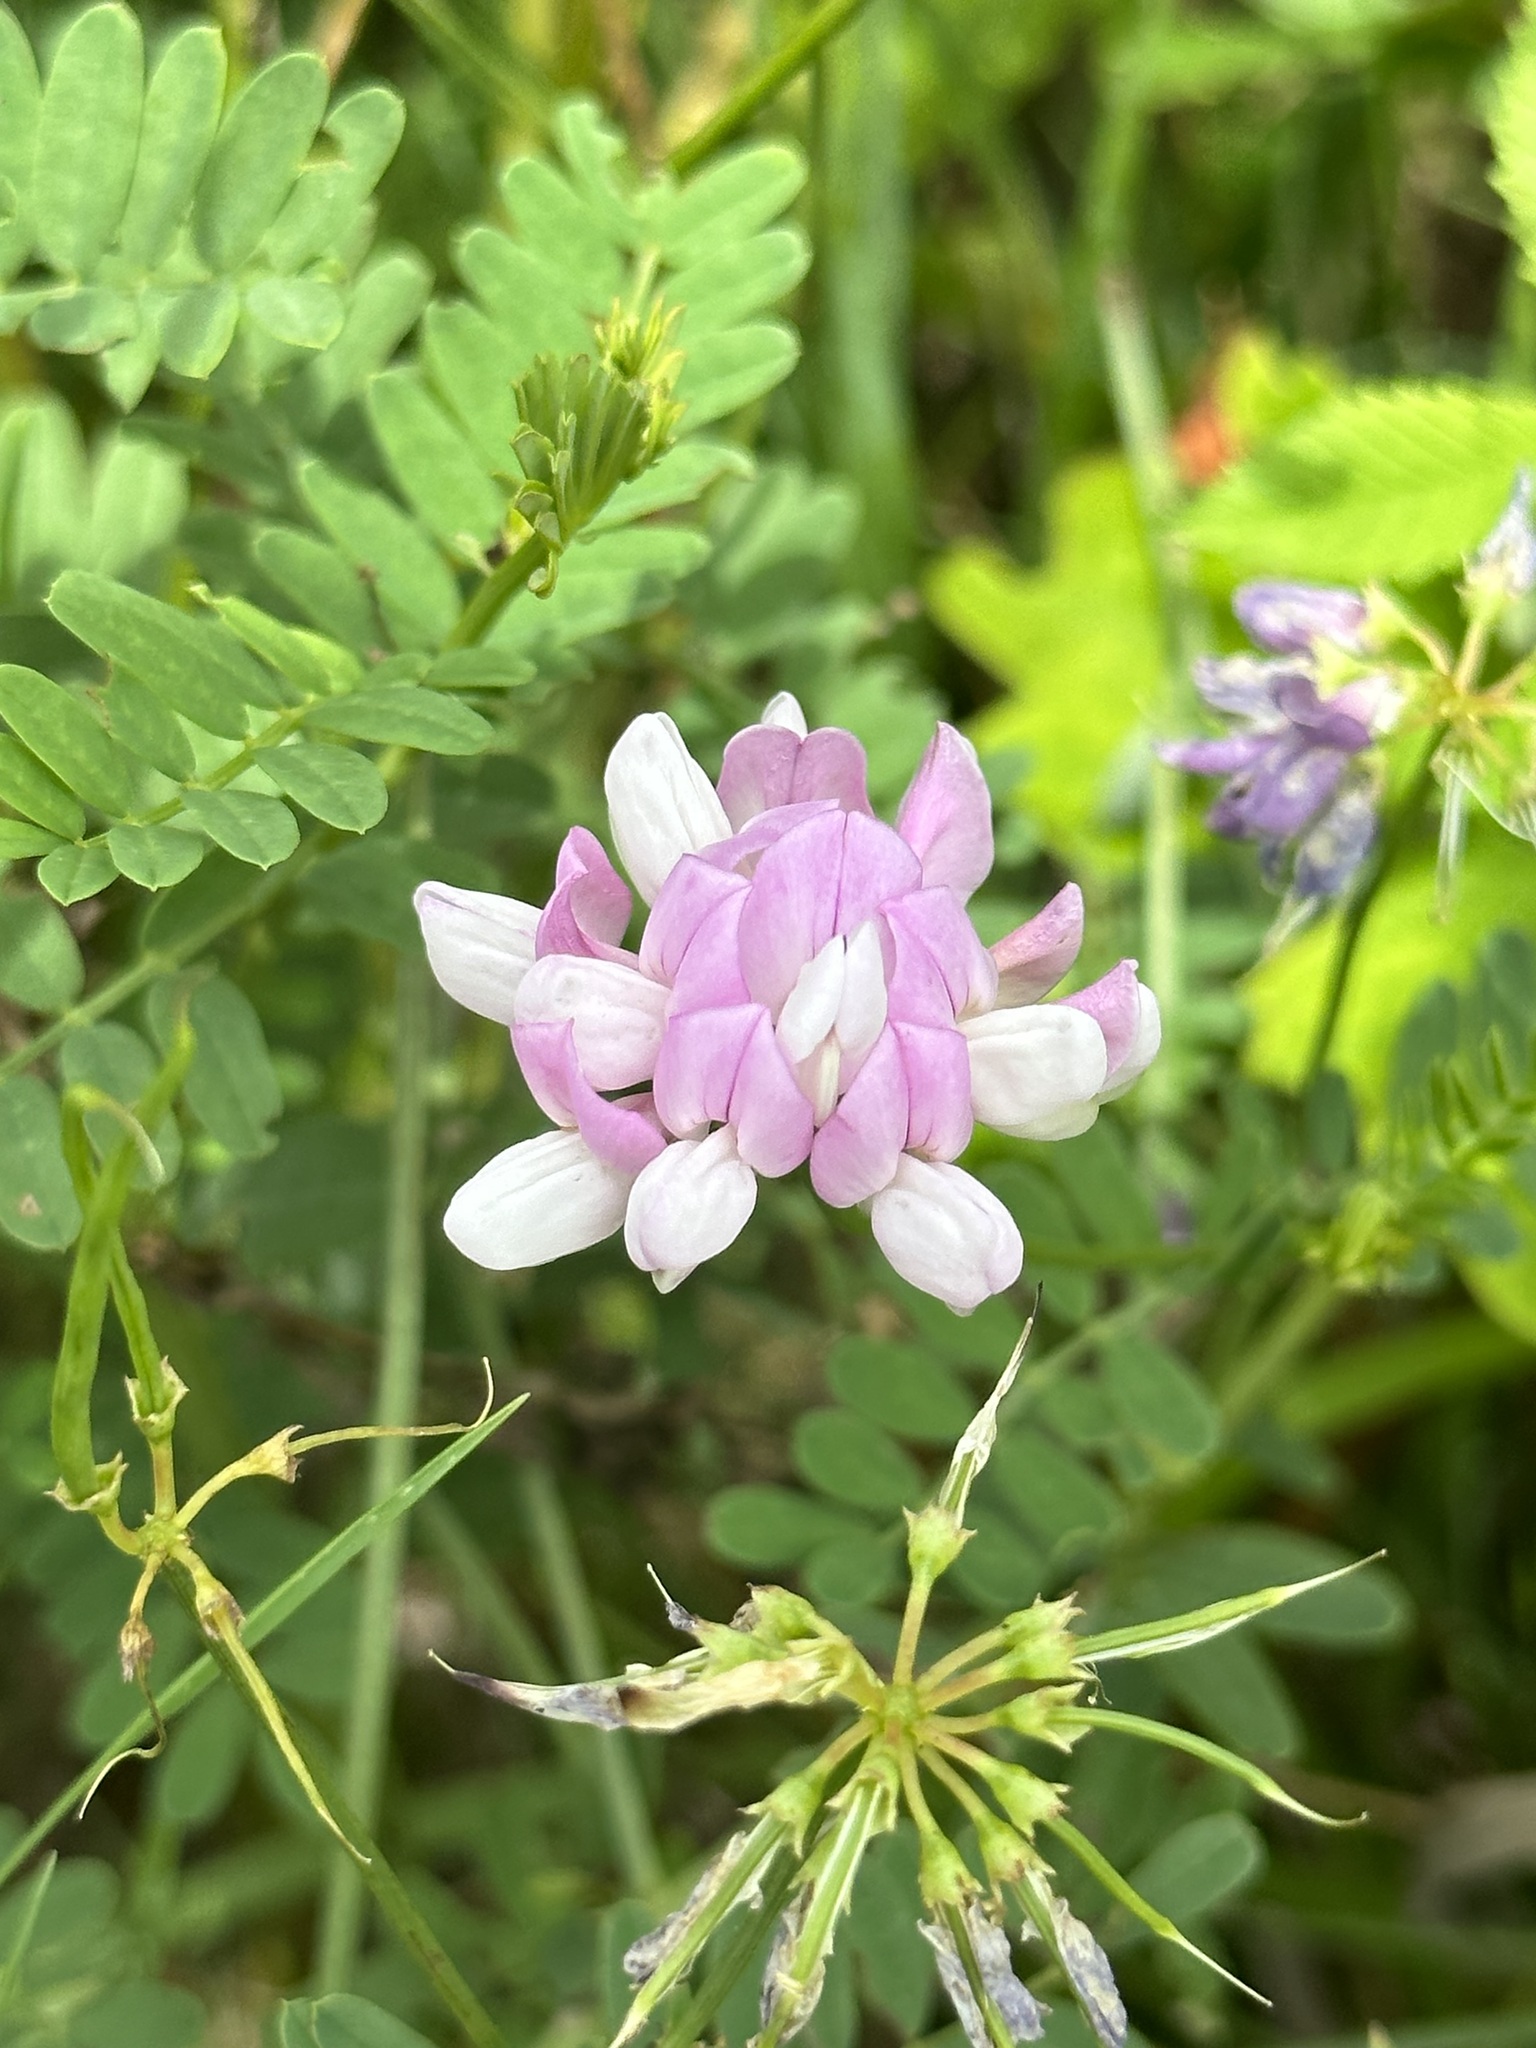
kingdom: Plantae
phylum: Tracheophyta
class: Magnoliopsida
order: Fabales
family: Fabaceae
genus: Coronilla
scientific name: Coronilla varia
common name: Crownvetch
